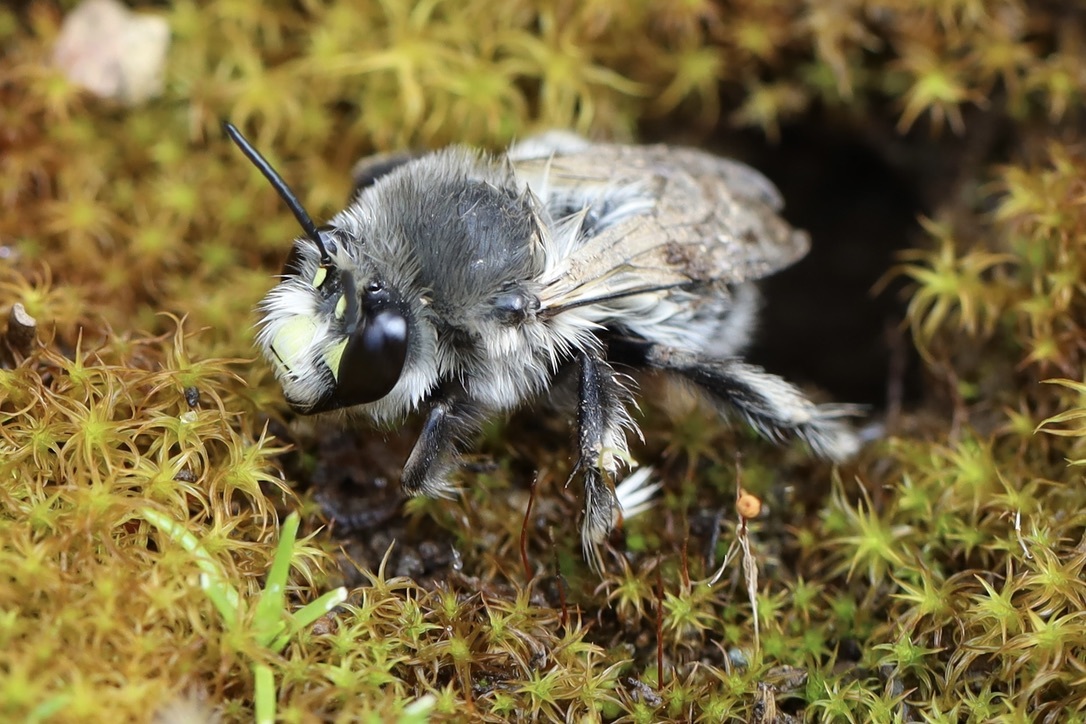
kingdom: Animalia
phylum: Arthropoda
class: Insecta
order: Hymenoptera
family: Apidae
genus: Anthophora
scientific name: Anthophora pacifica
